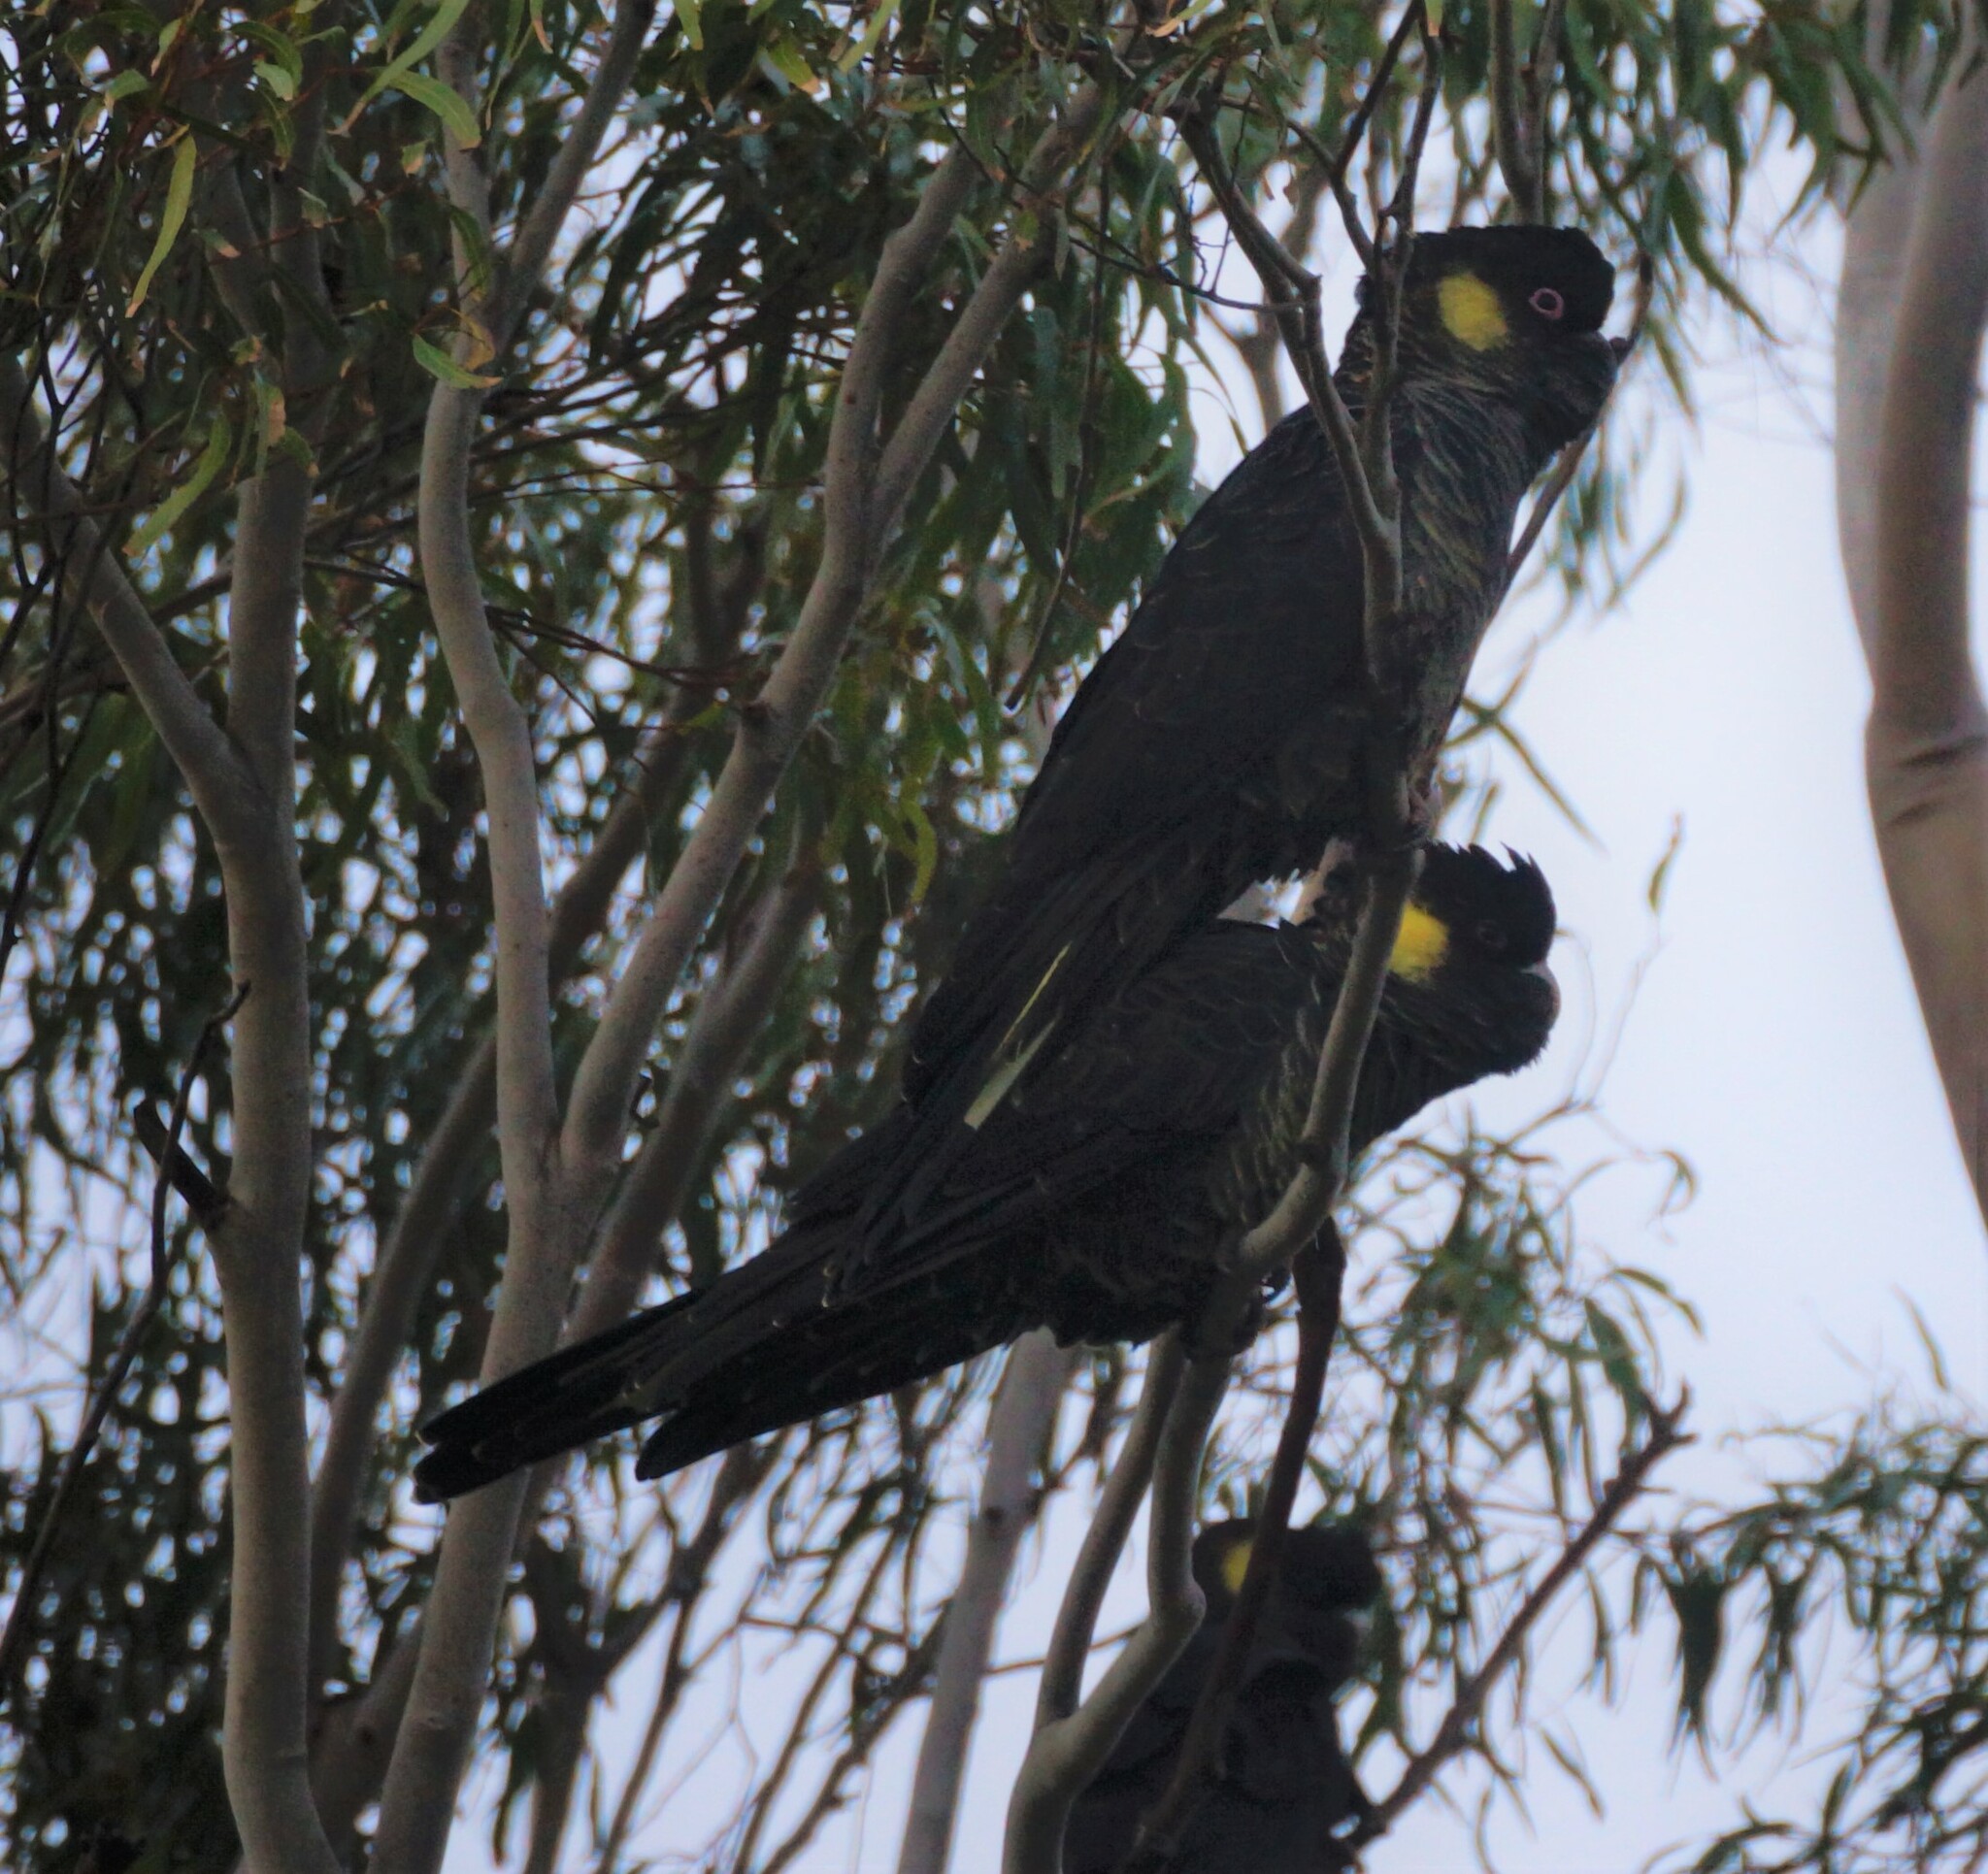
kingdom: Animalia
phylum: Chordata
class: Aves
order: Psittaciformes
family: Cacatuidae
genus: Zanda
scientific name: Zanda funerea
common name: Yellow-tailed black-cockatoo
